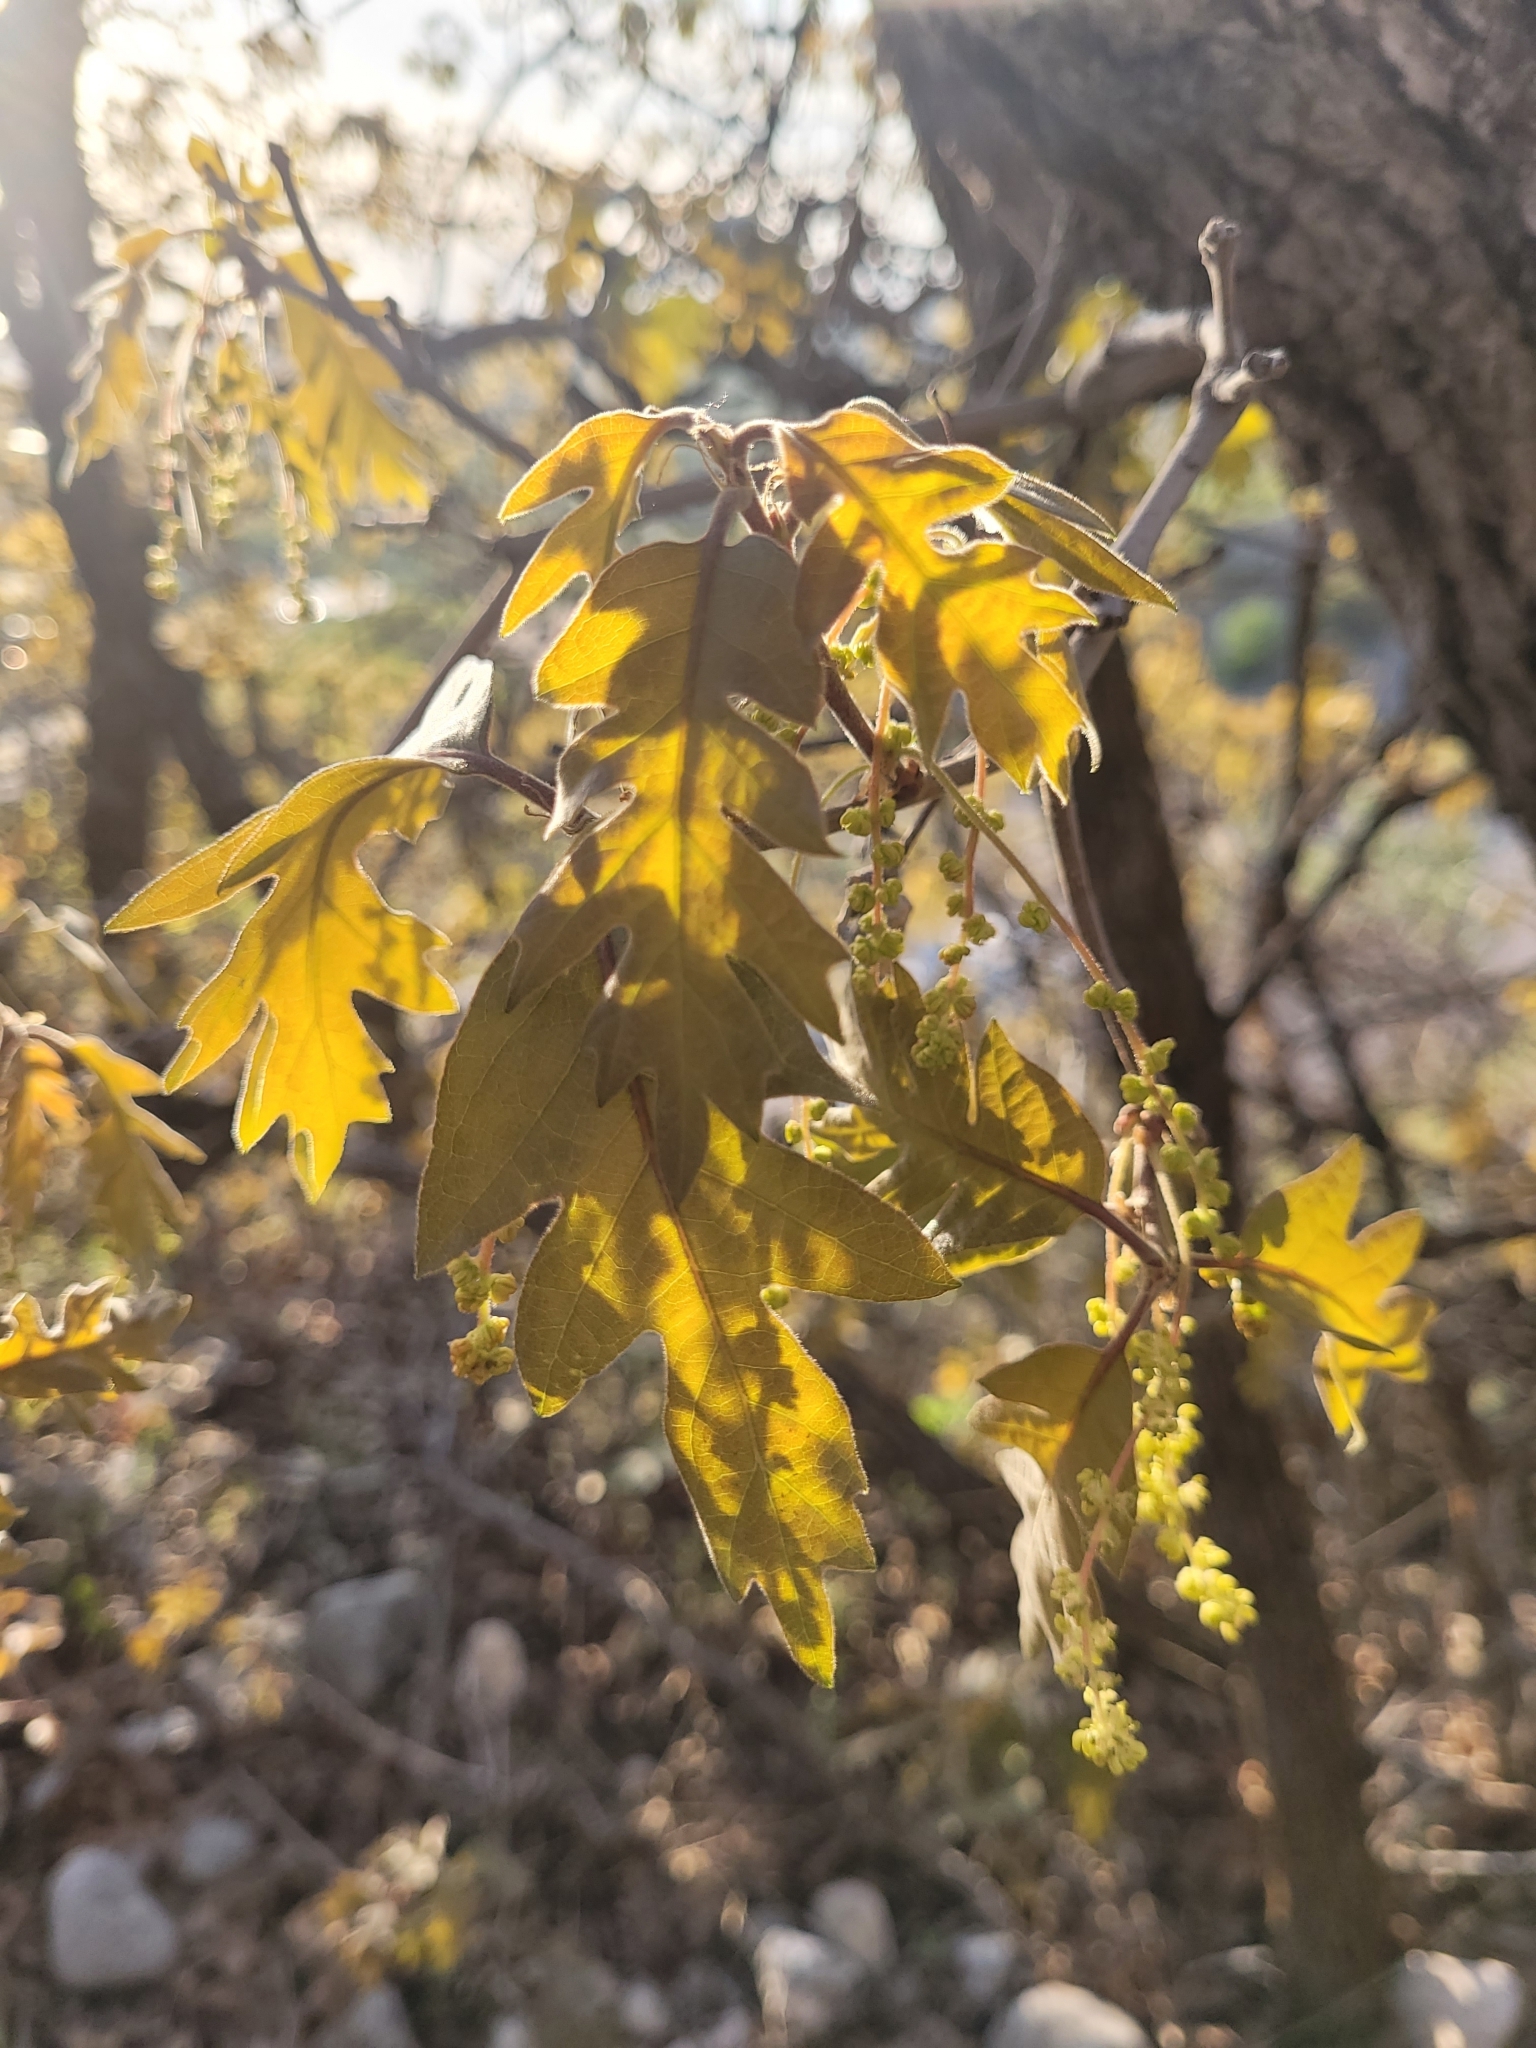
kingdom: Plantae
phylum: Tracheophyta
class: Magnoliopsida
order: Fagales
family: Fagaceae
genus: Quercus
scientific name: Quercus gambelii
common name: Gambel oak
